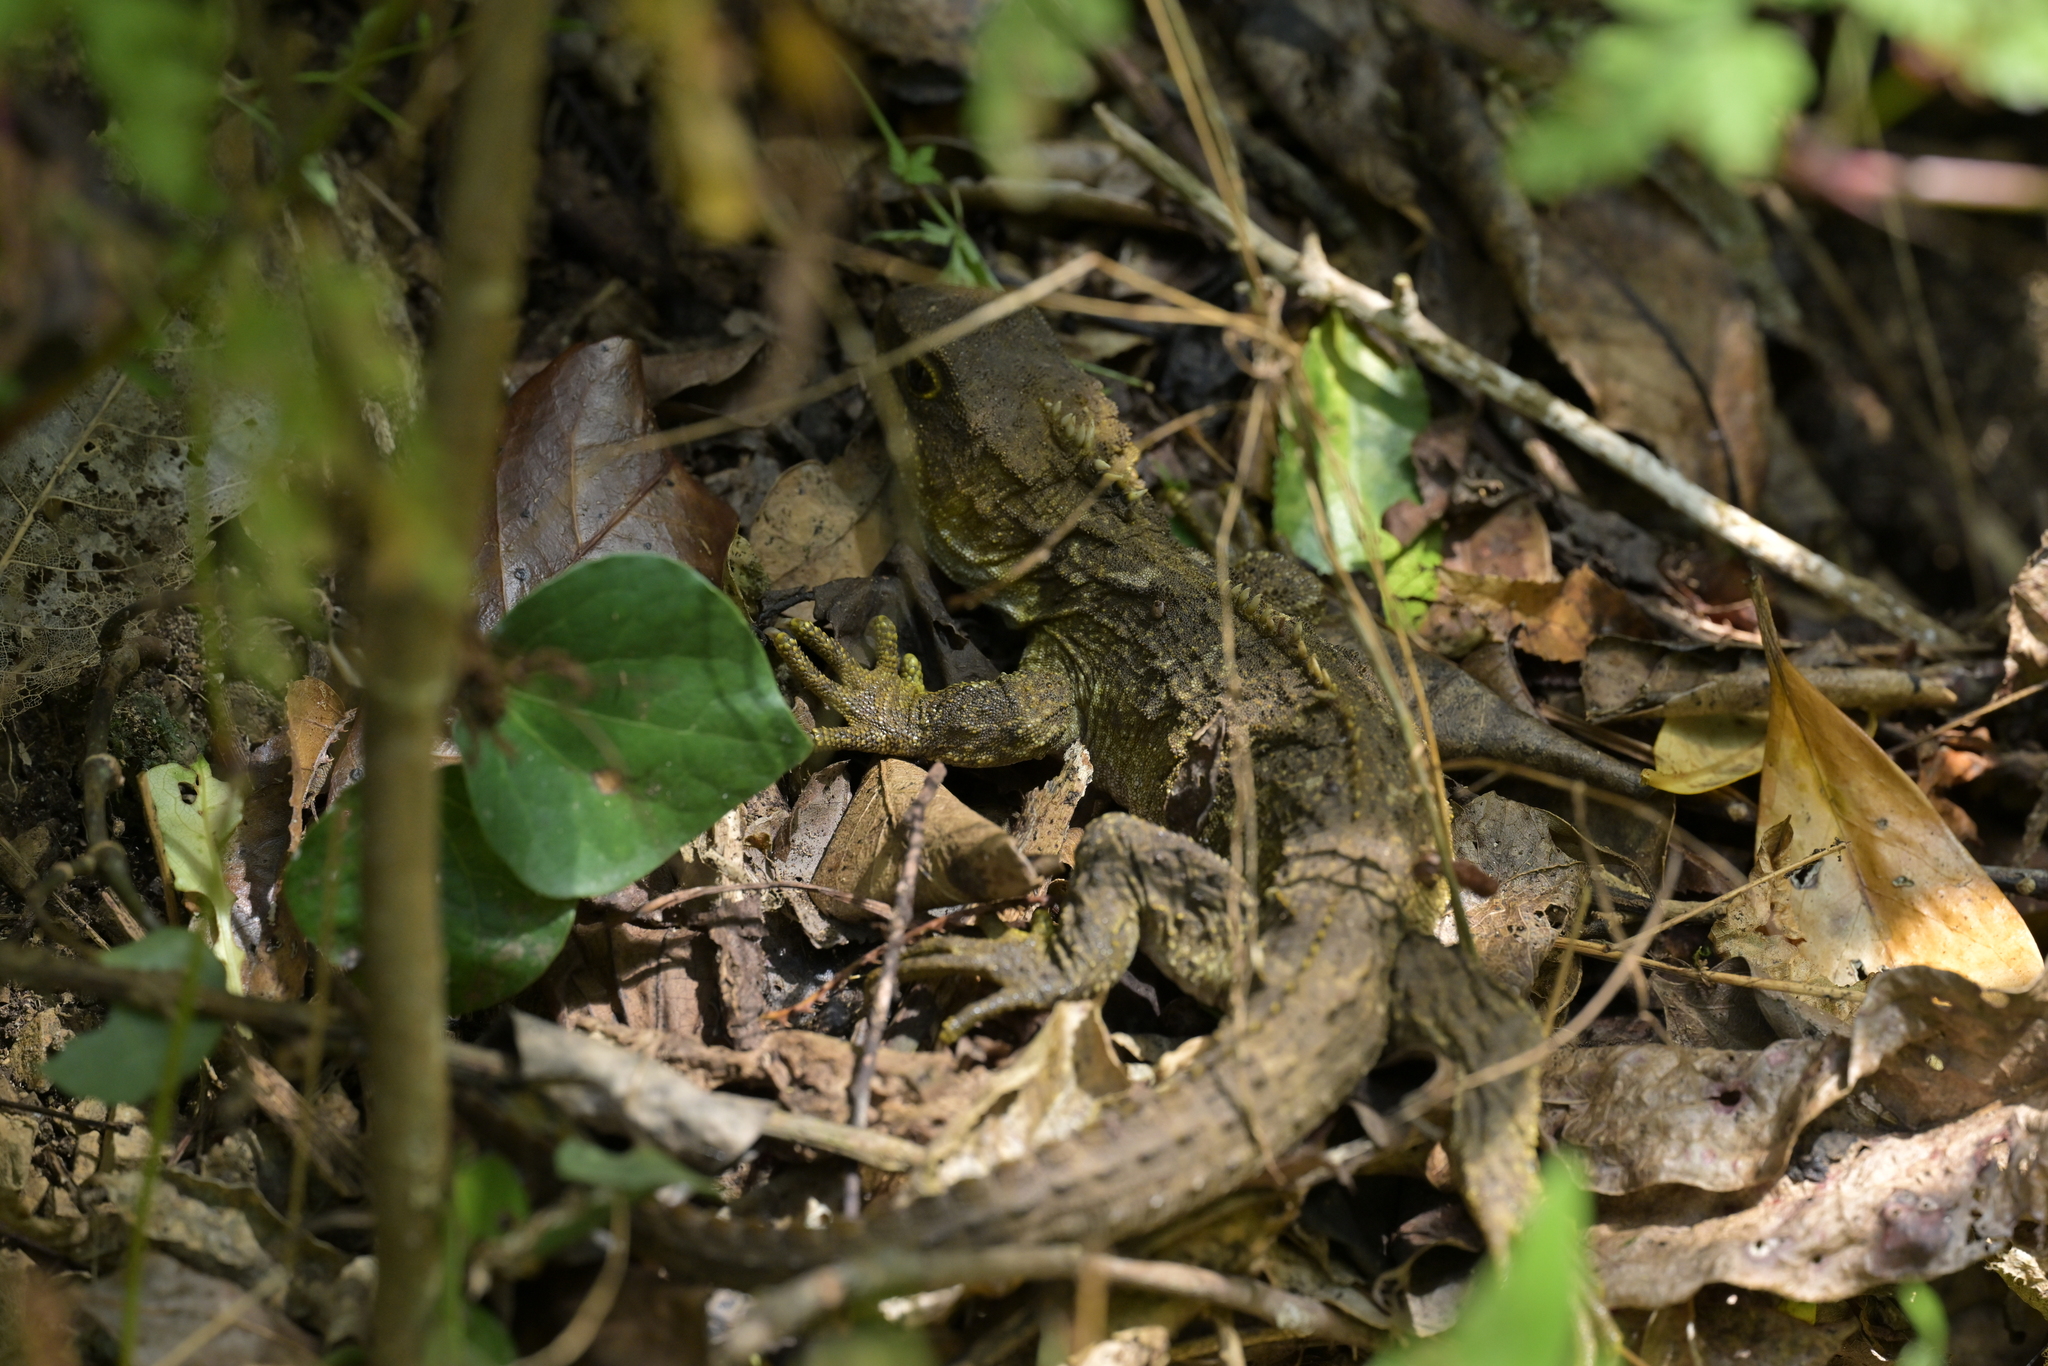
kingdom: Animalia
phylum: Chordata
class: Sphenodontia
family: Sphenodontidae
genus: Sphenodon
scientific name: Sphenodon punctatus
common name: Tuatara
